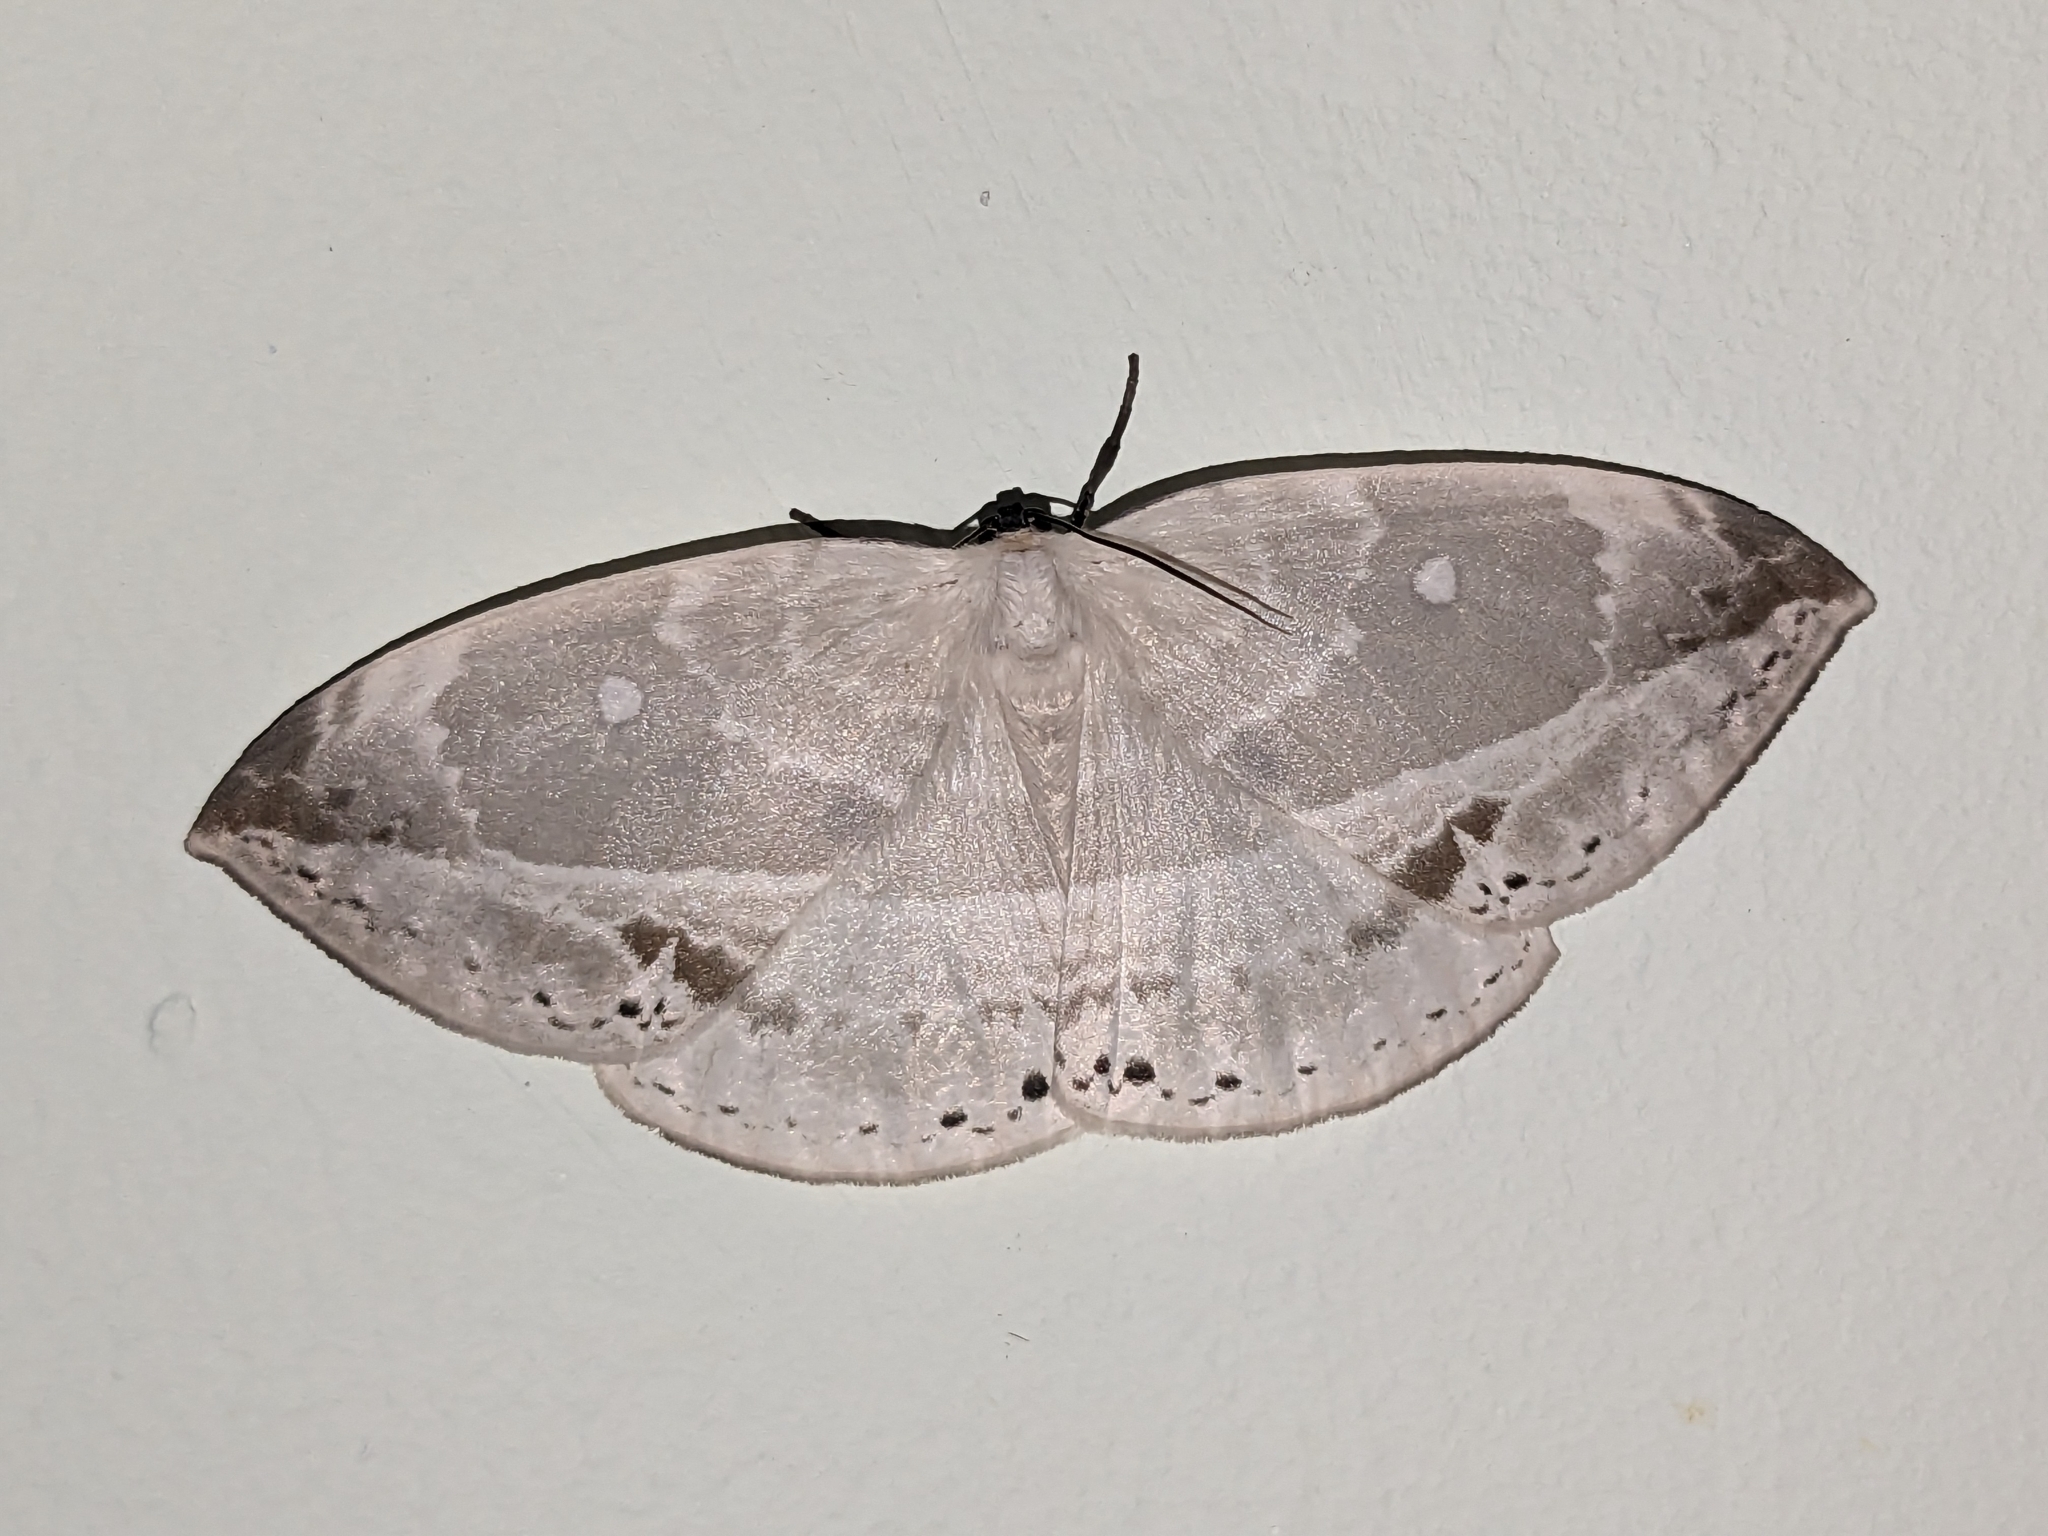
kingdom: Animalia
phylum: Arthropoda
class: Insecta
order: Lepidoptera
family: Drepanidae
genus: Cyclidia
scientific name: Cyclidia substigmaria
